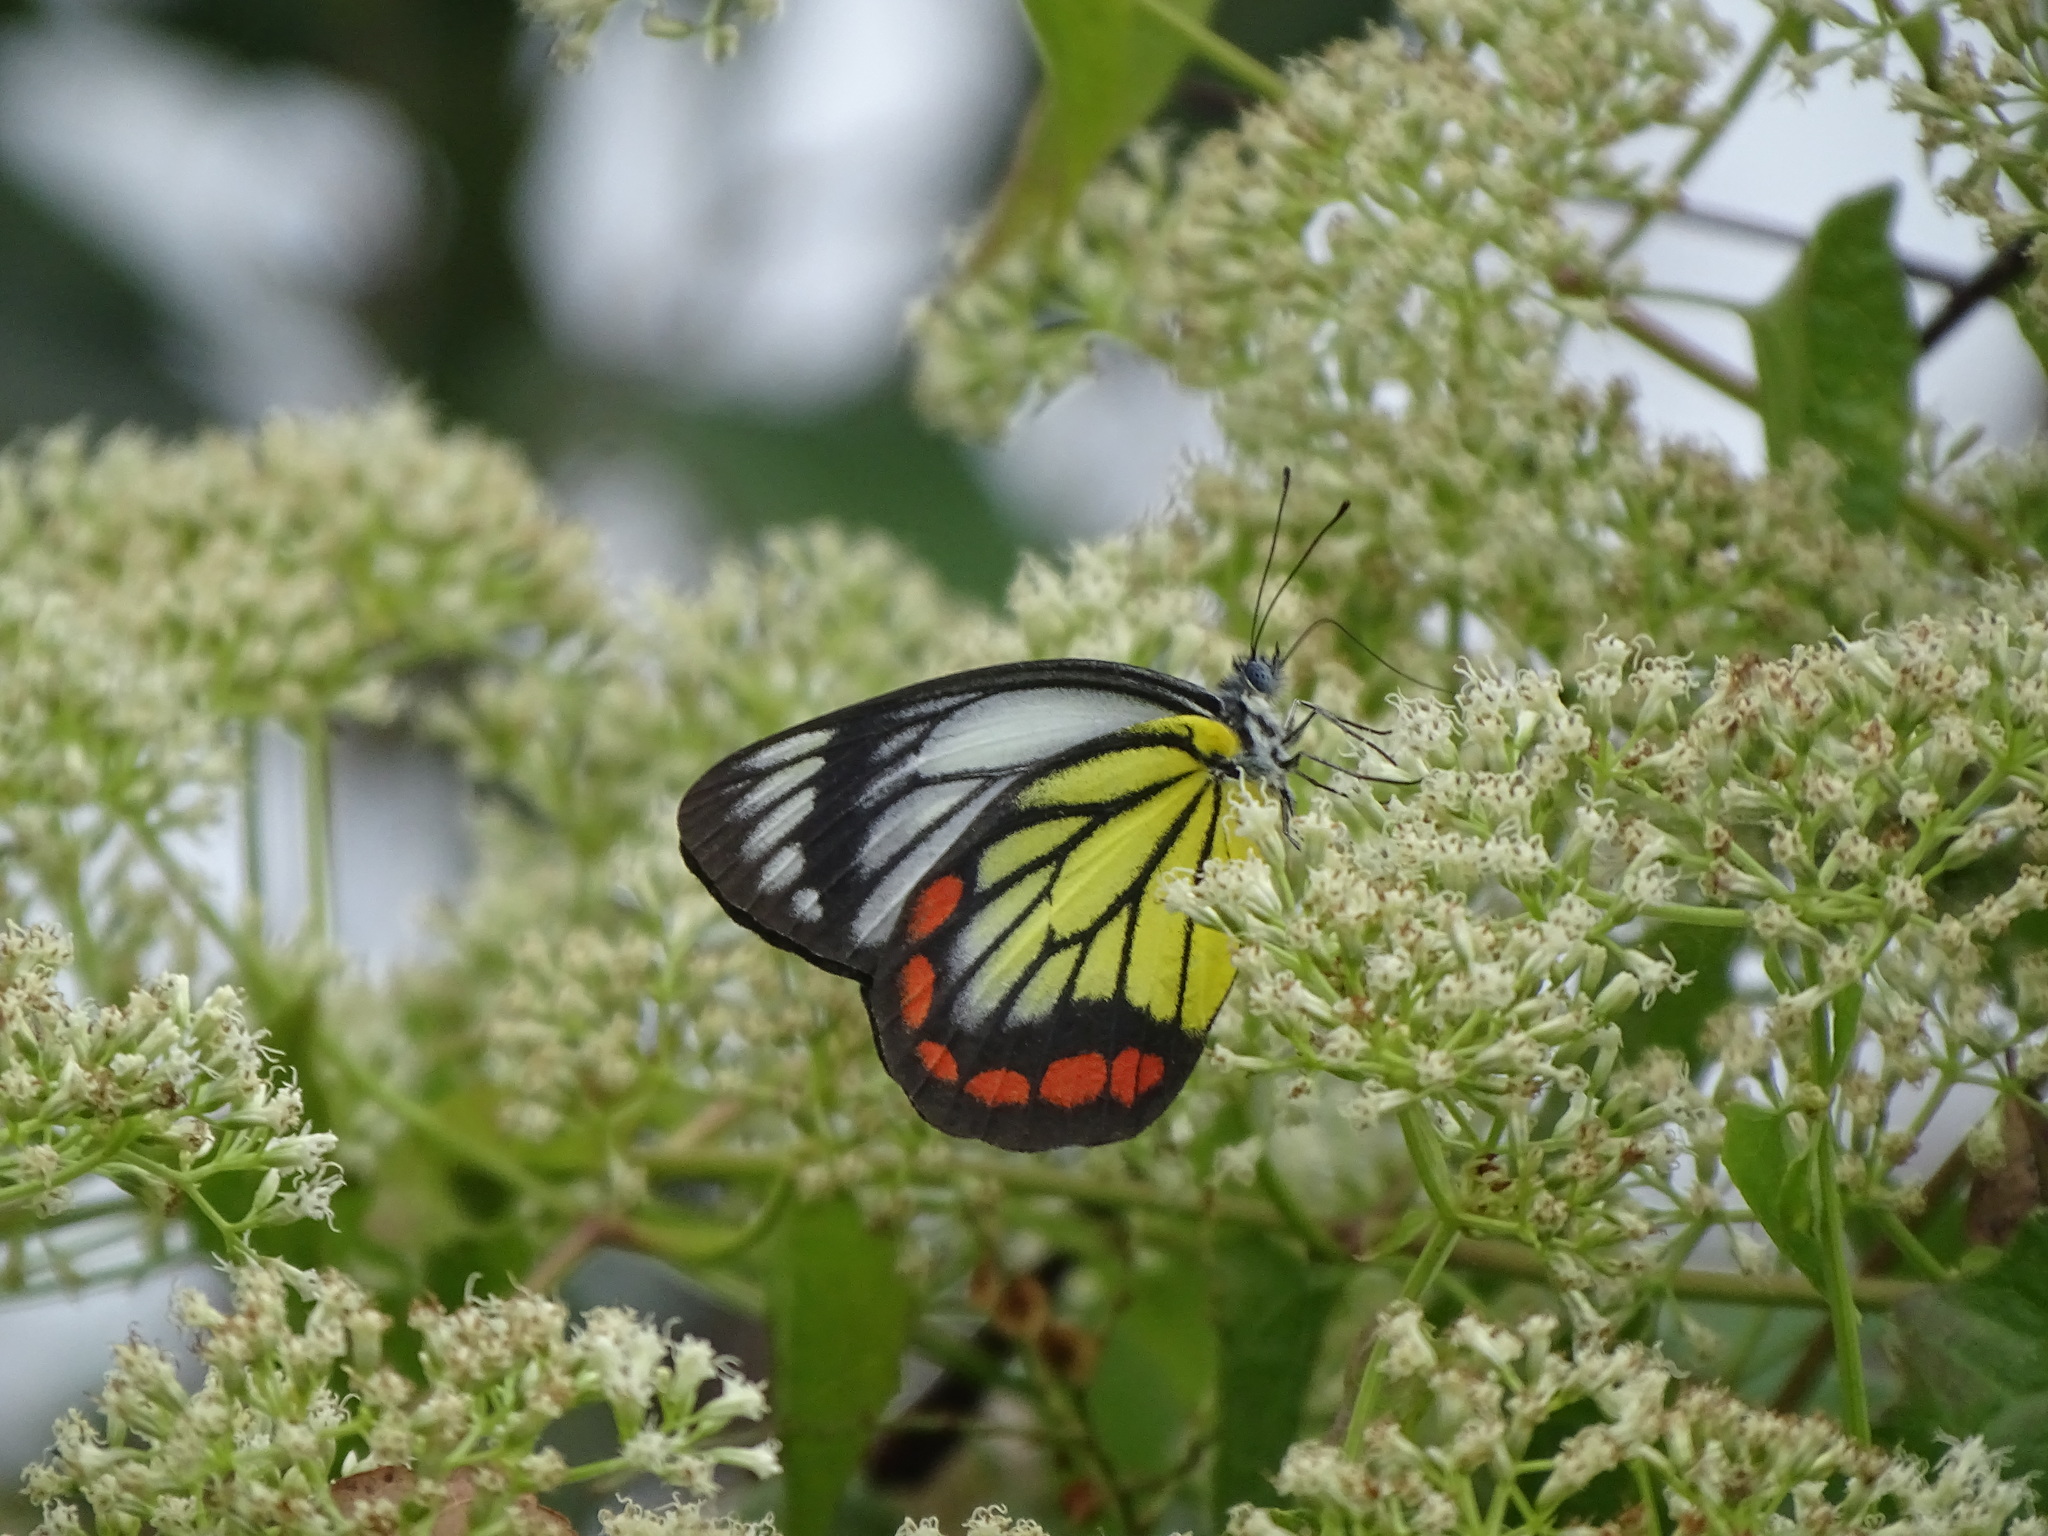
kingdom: Animalia
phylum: Arthropoda
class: Insecta
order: Lepidoptera
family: Pieridae
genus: Delias
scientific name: Delias hyparete
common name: Painted jezebel
